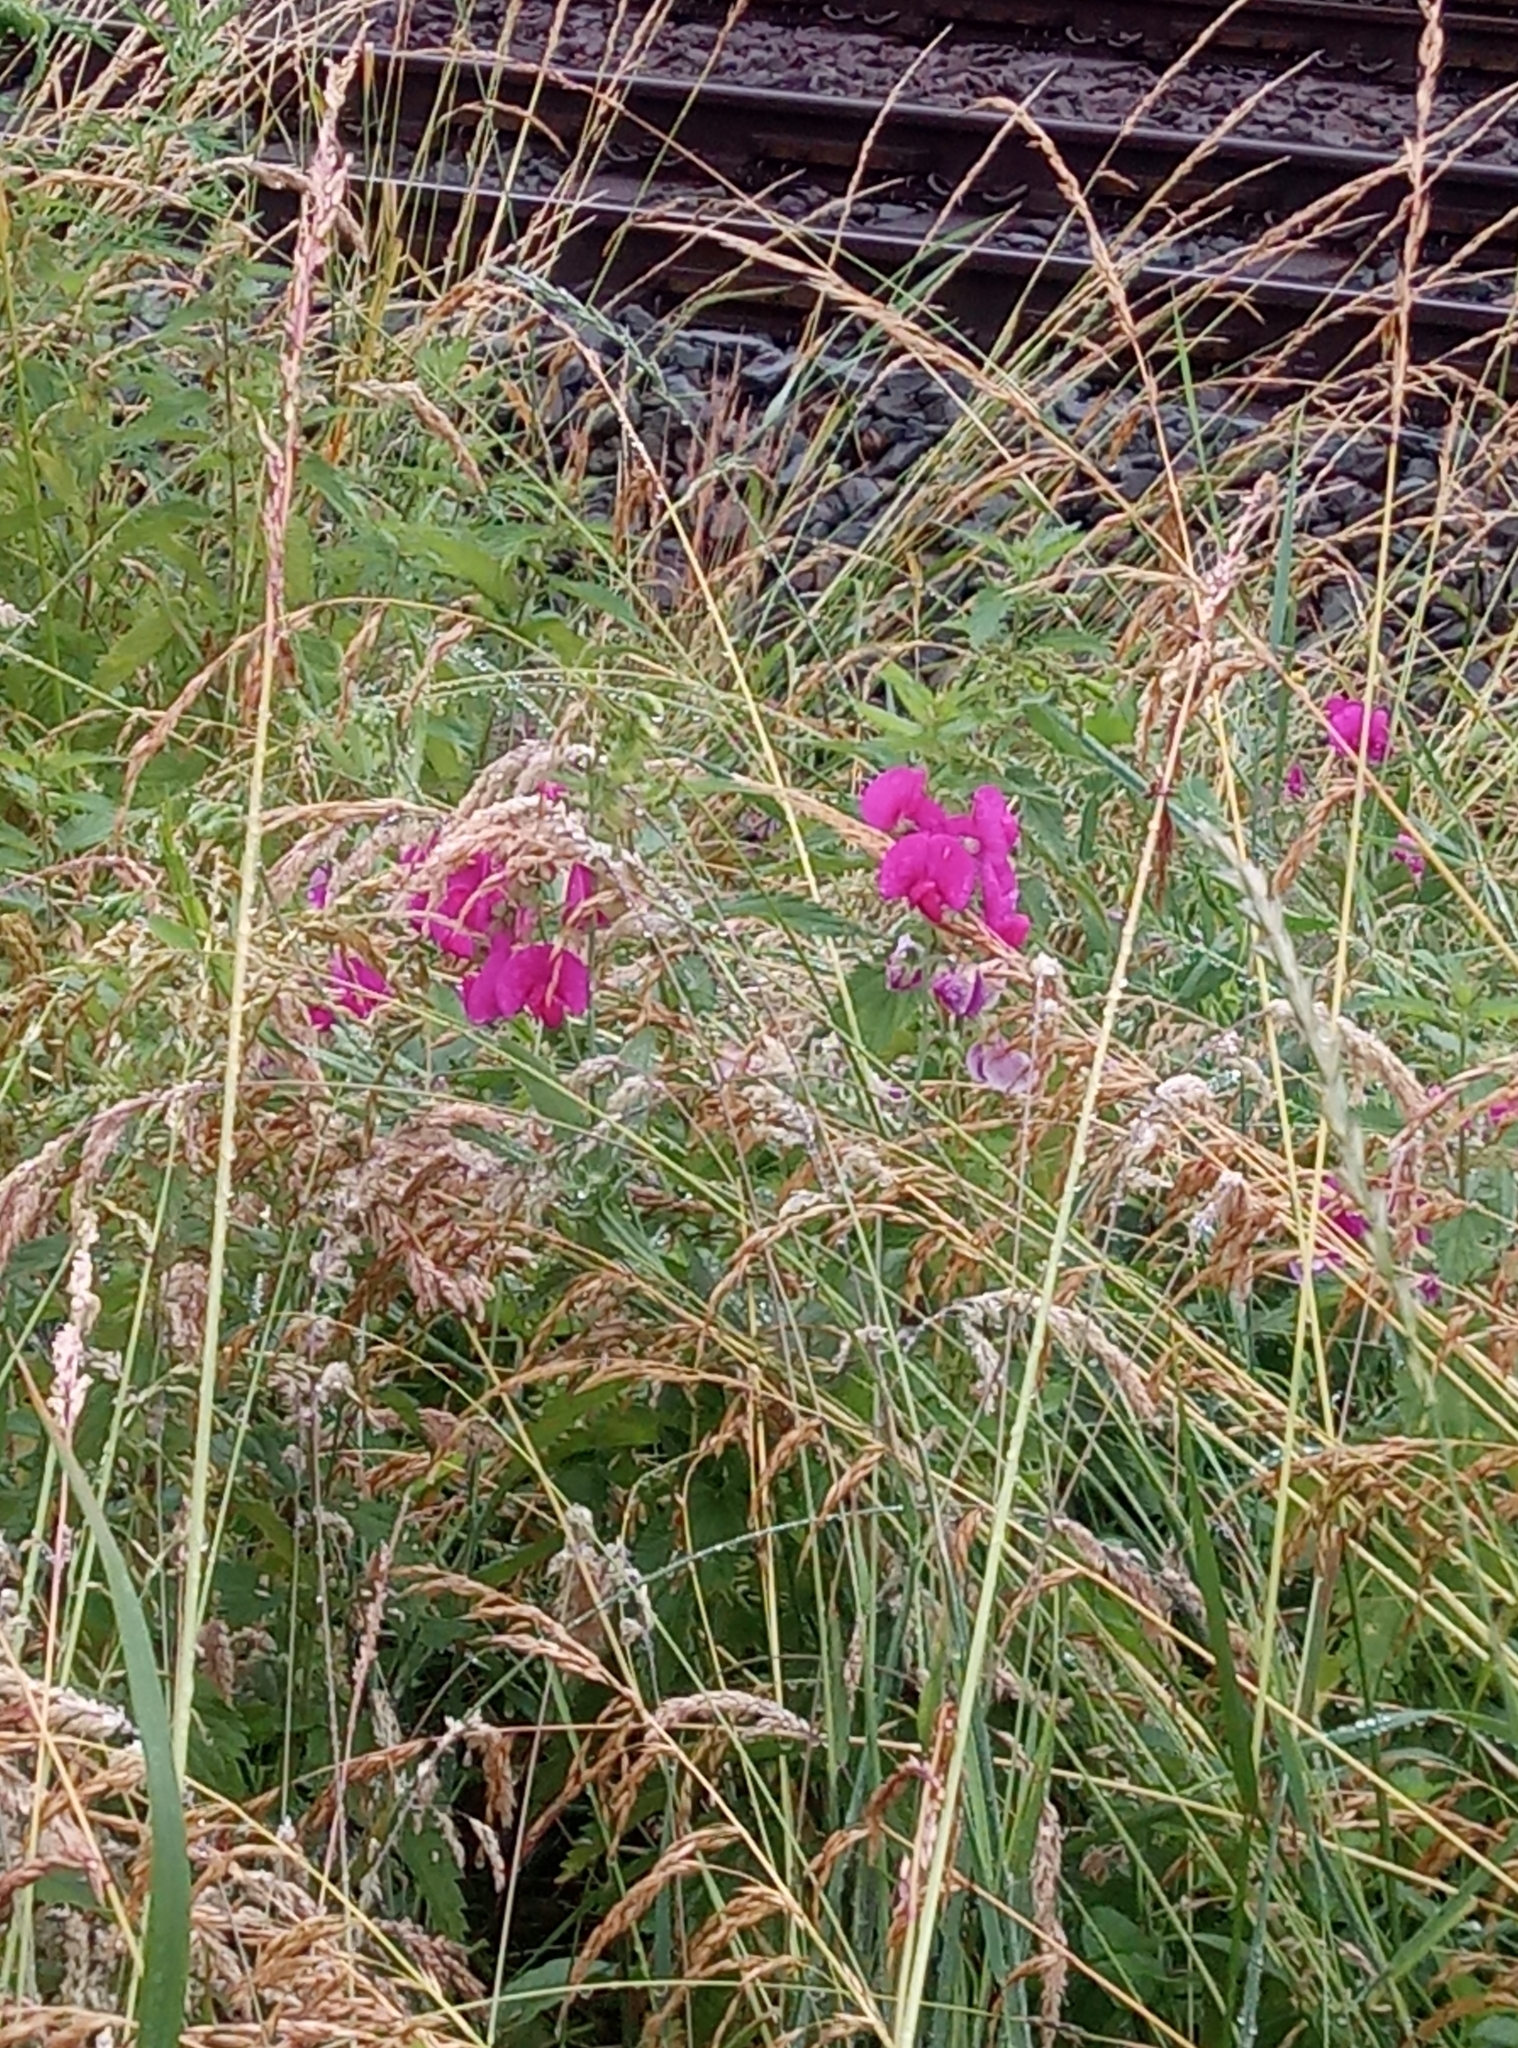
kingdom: Plantae
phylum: Tracheophyta
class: Magnoliopsida
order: Fabales
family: Fabaceae
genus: Lathyrus
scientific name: Lathyrus latifolius
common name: Perennial pea
